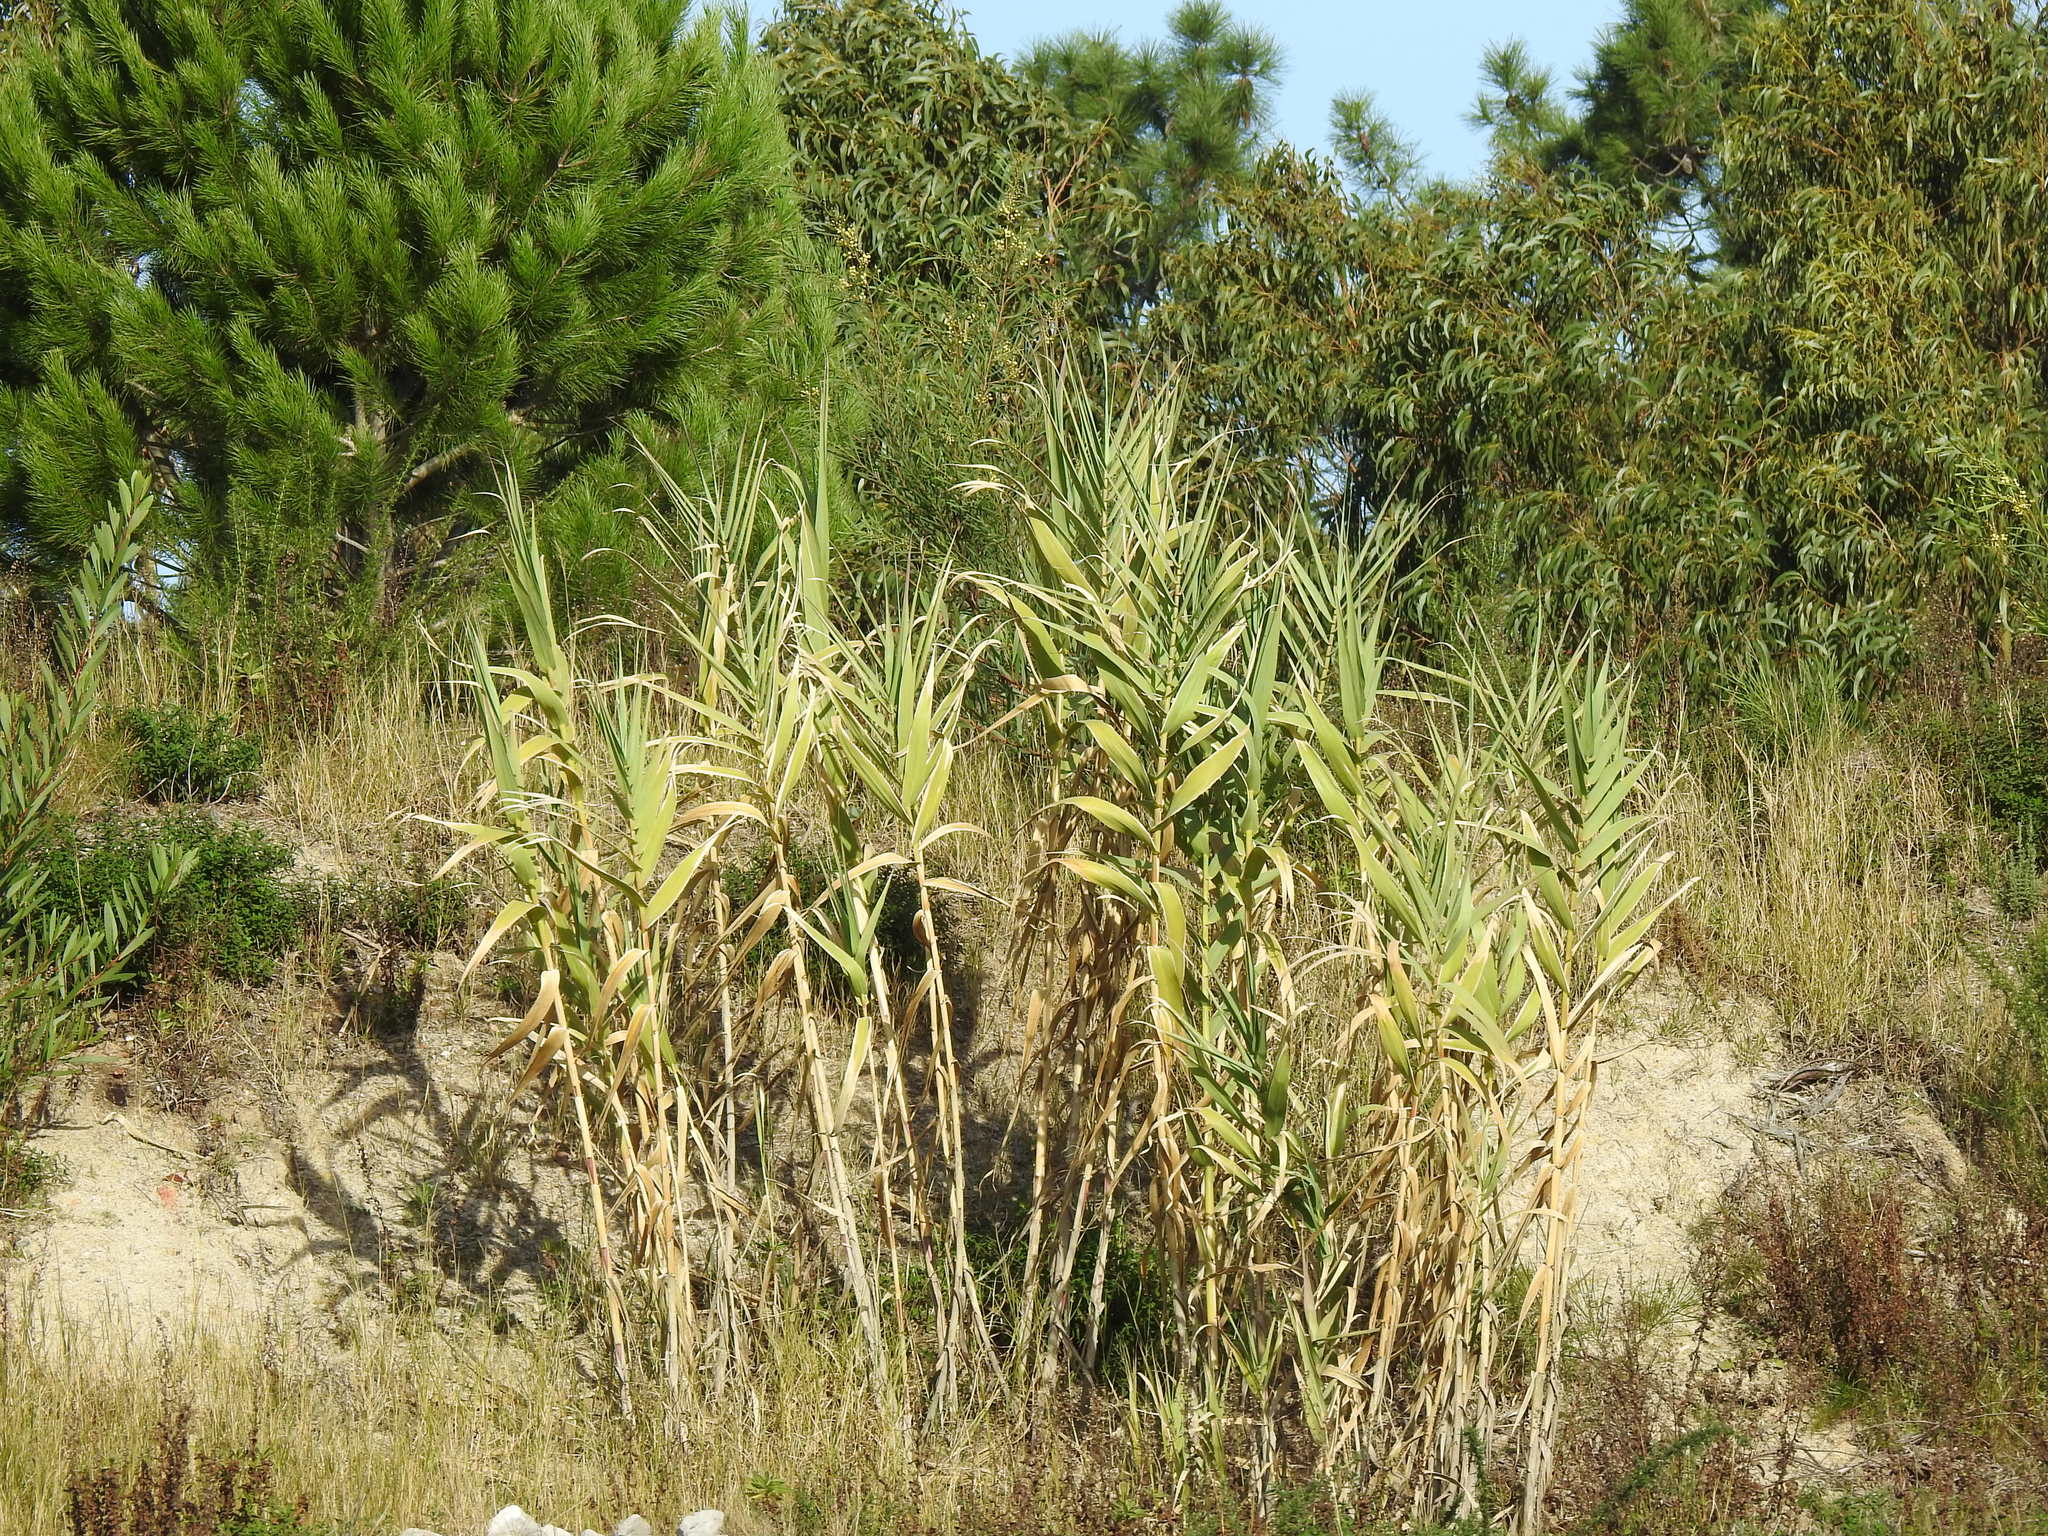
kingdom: Plantae
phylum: Tracheophyta
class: Liliopsida
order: Poales
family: Poaceae
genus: Arundo
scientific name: Arundo donax
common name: Giant reed
